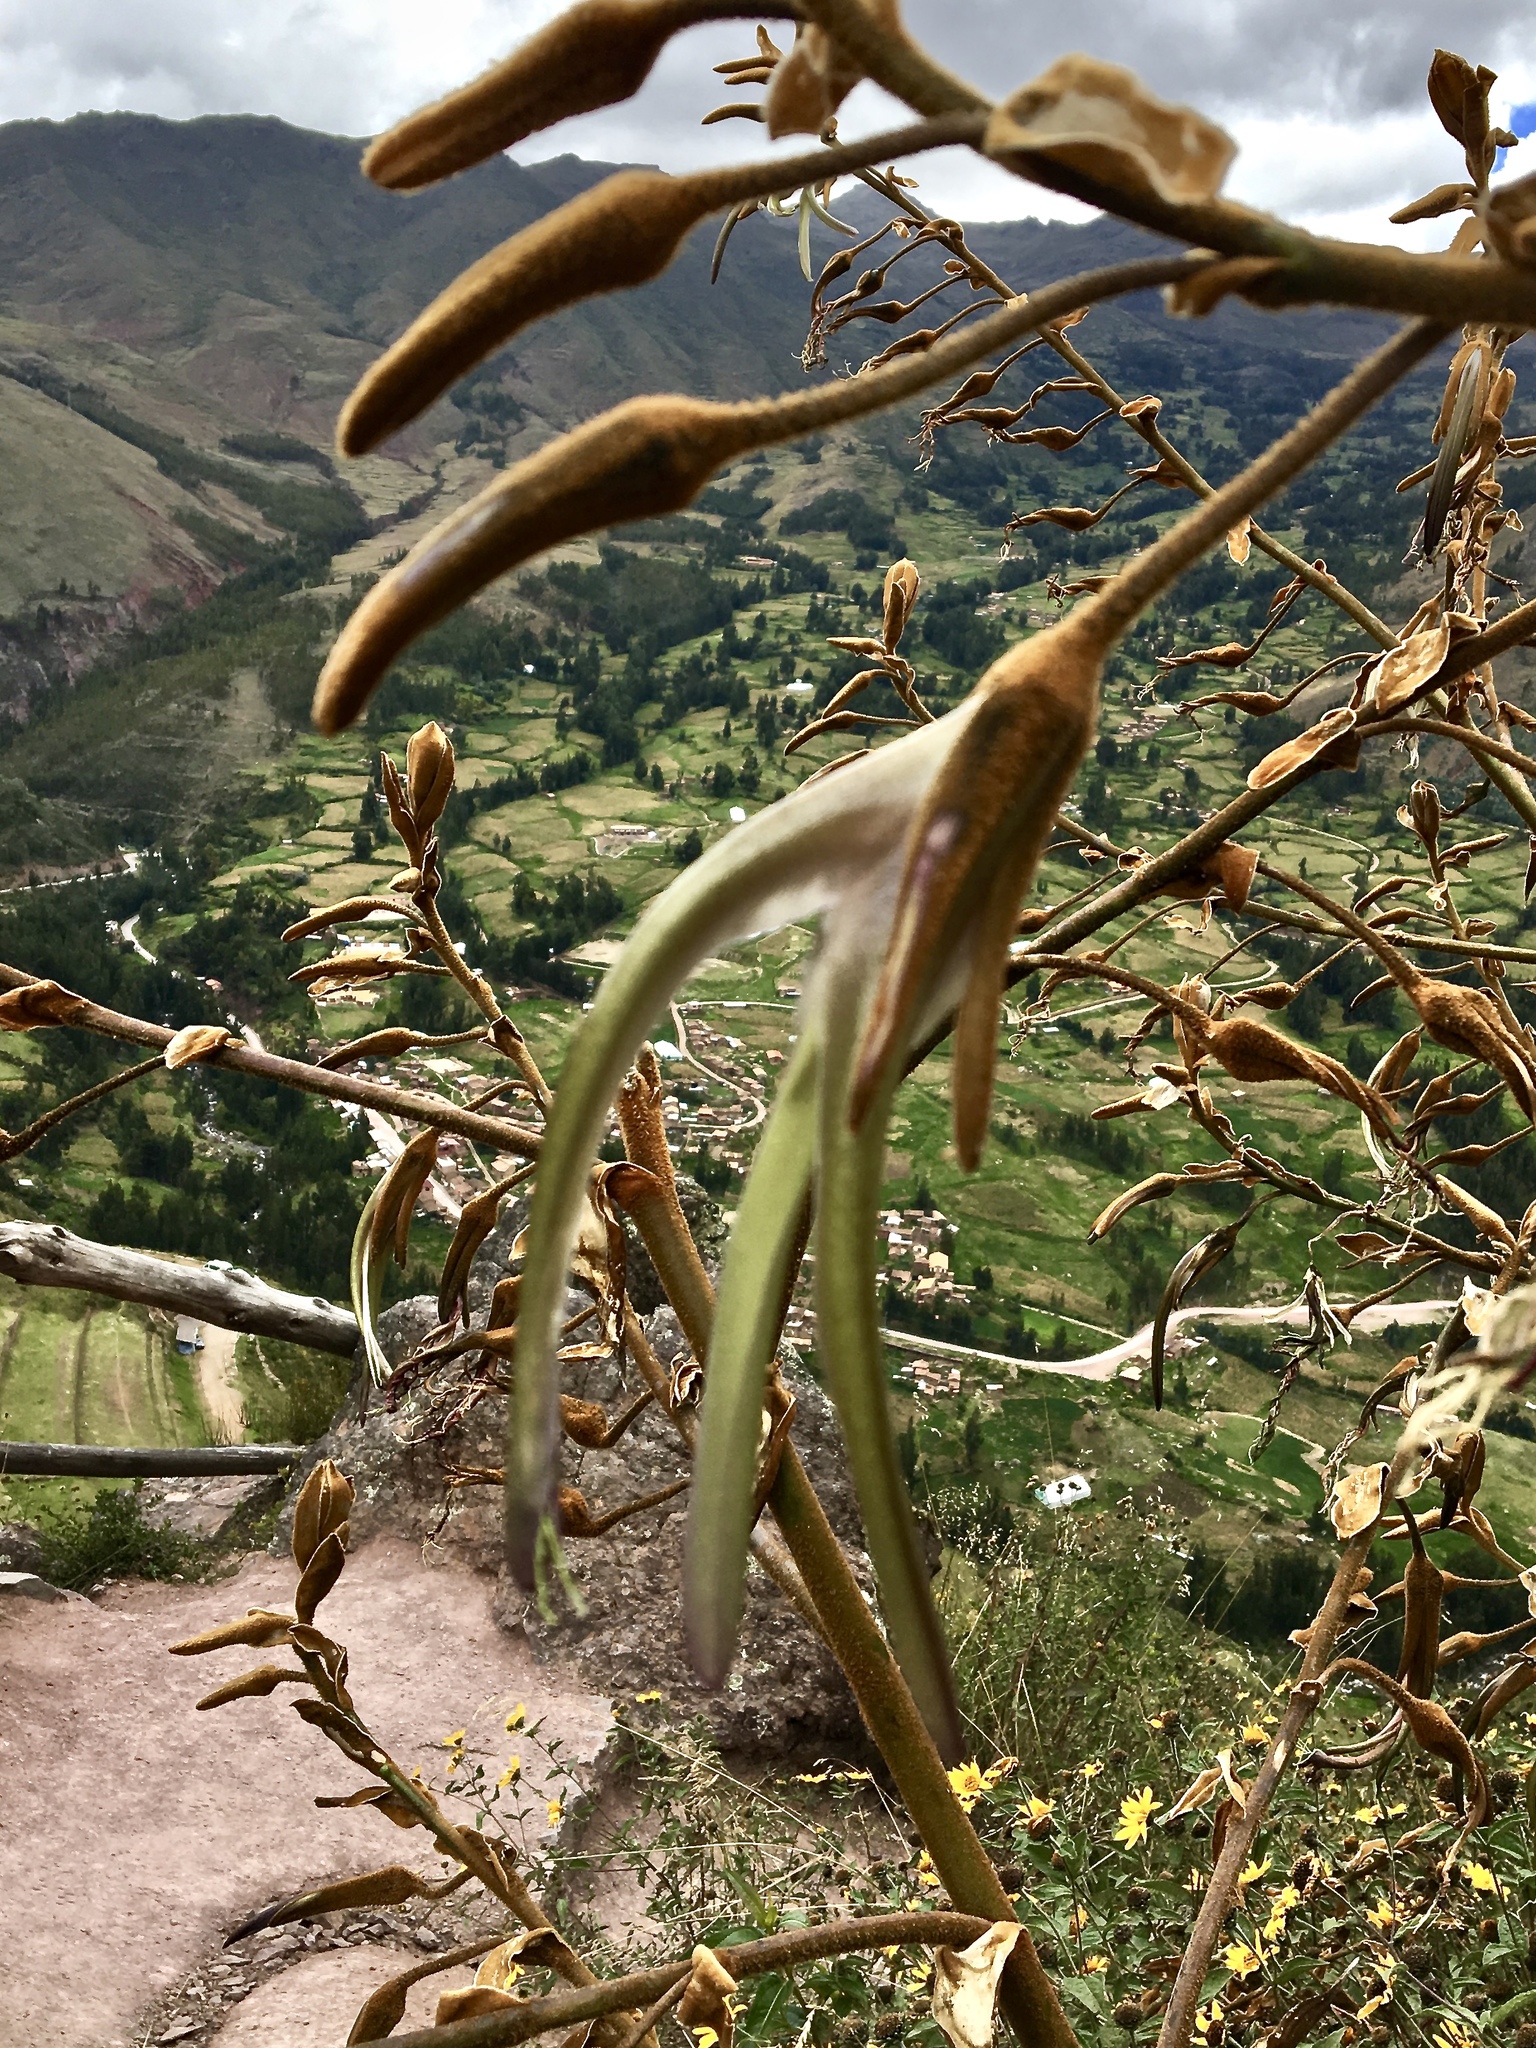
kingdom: Plantae
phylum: Tracheophyta
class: Liliopsida
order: Poales
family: Bromeliaceae
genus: Puya
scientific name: Puya ferruginea
